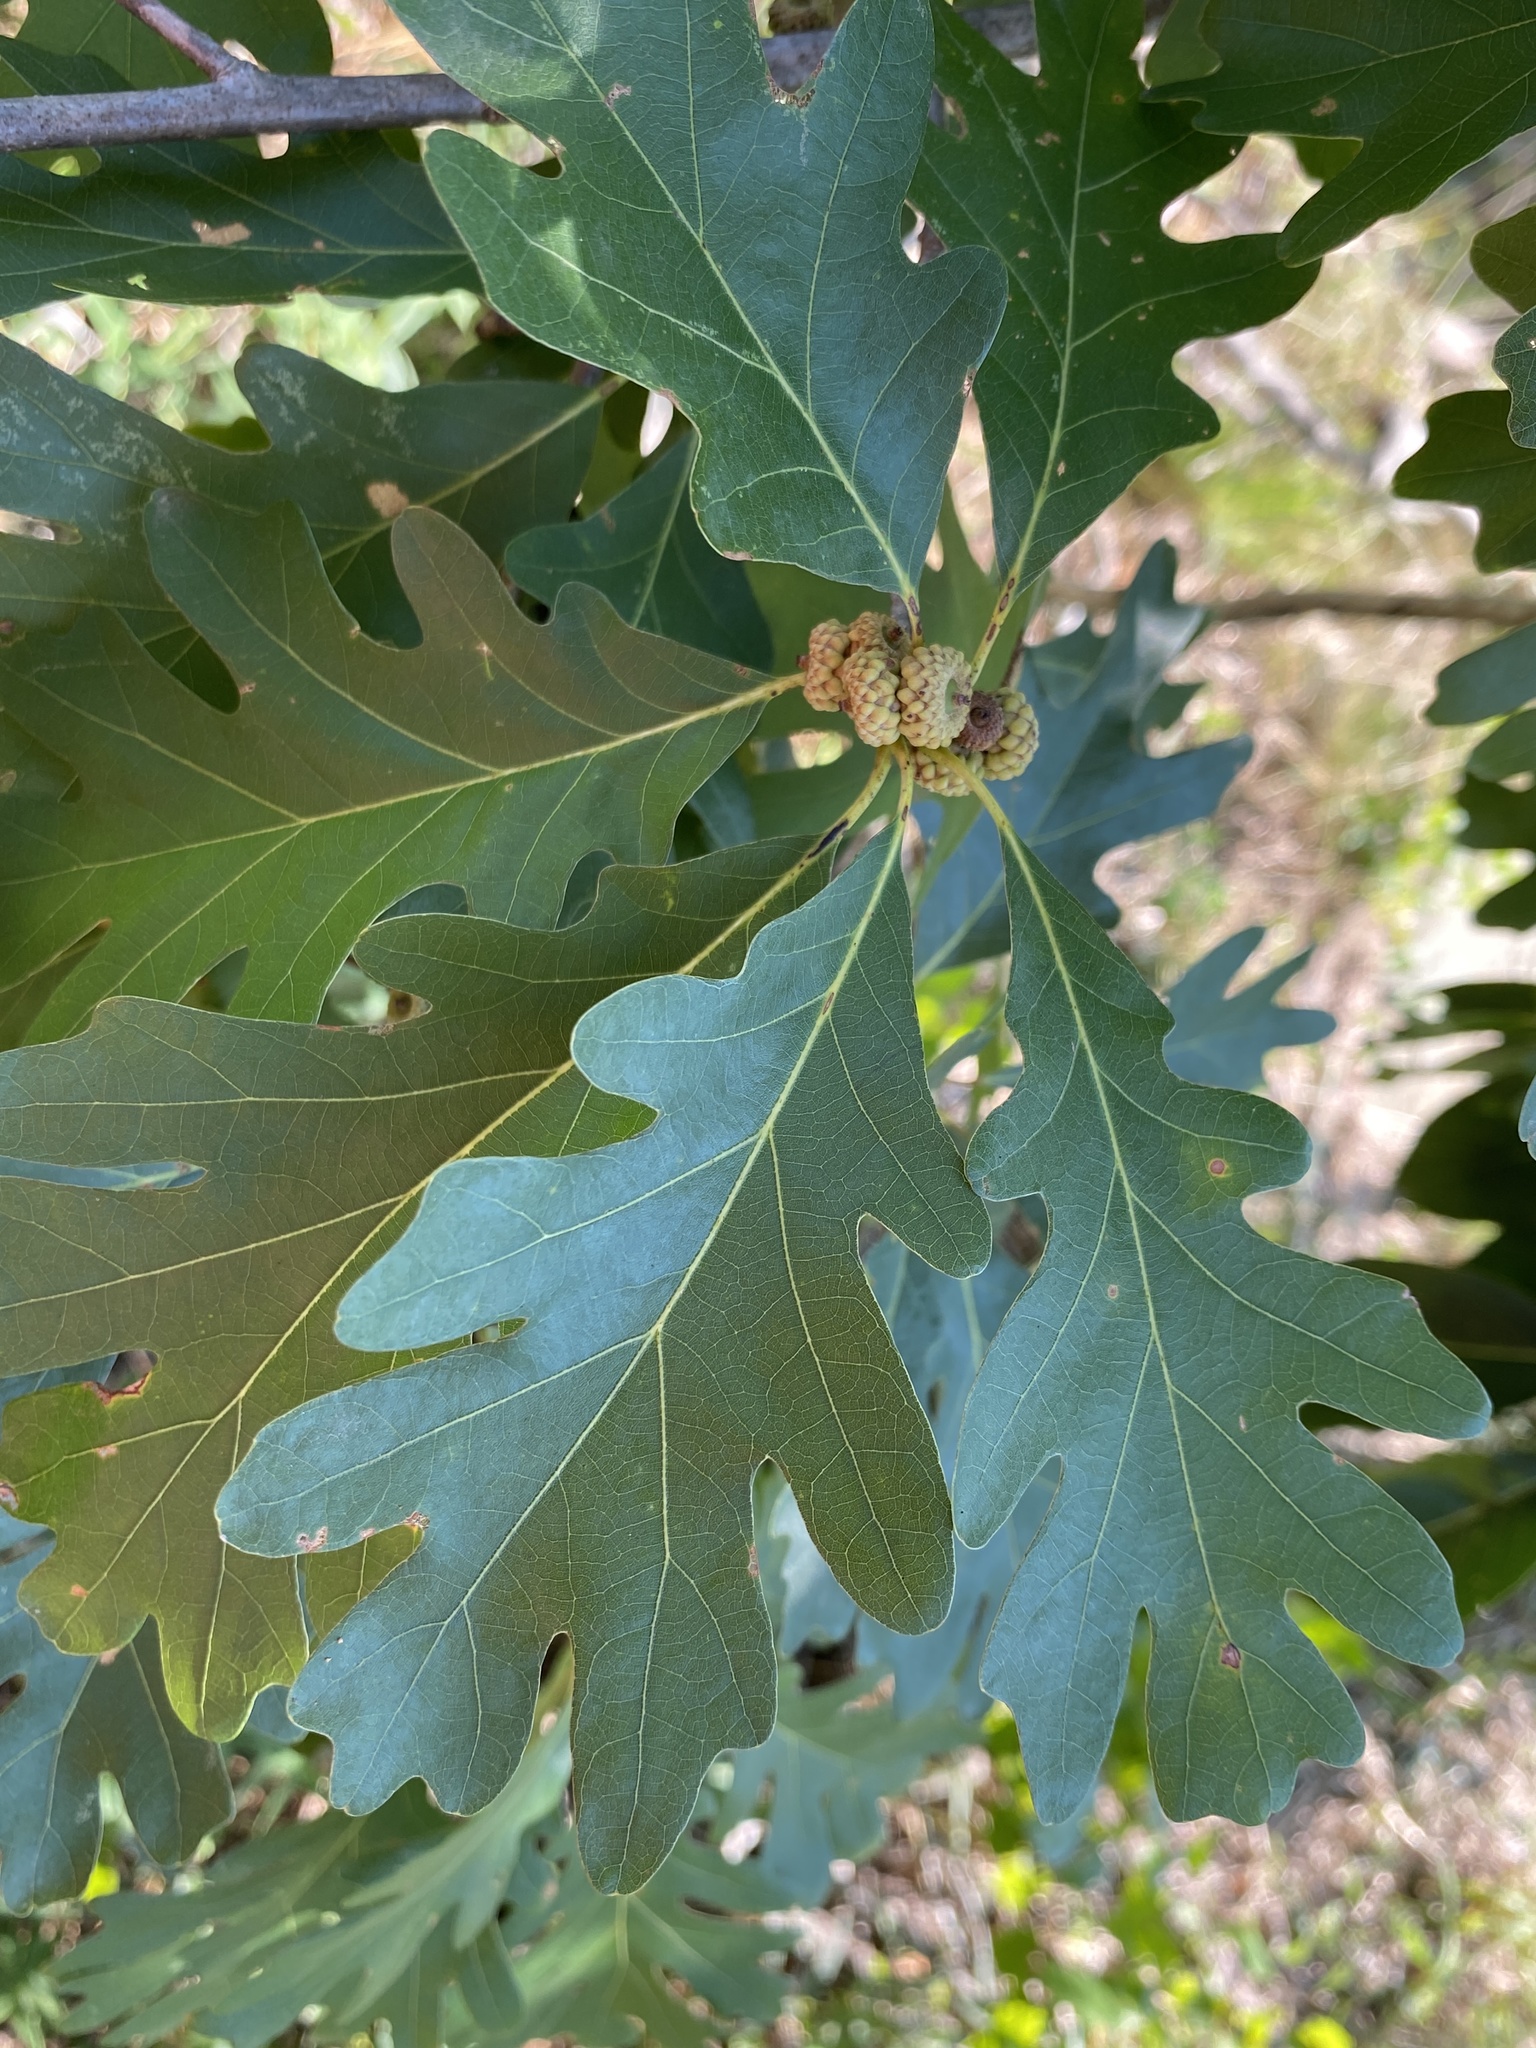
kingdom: Plantae
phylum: Tracheophyta
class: Magnoliopsida
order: Fagales
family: Fagaceae
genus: Quercus
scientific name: Quercus alba
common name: White oak
